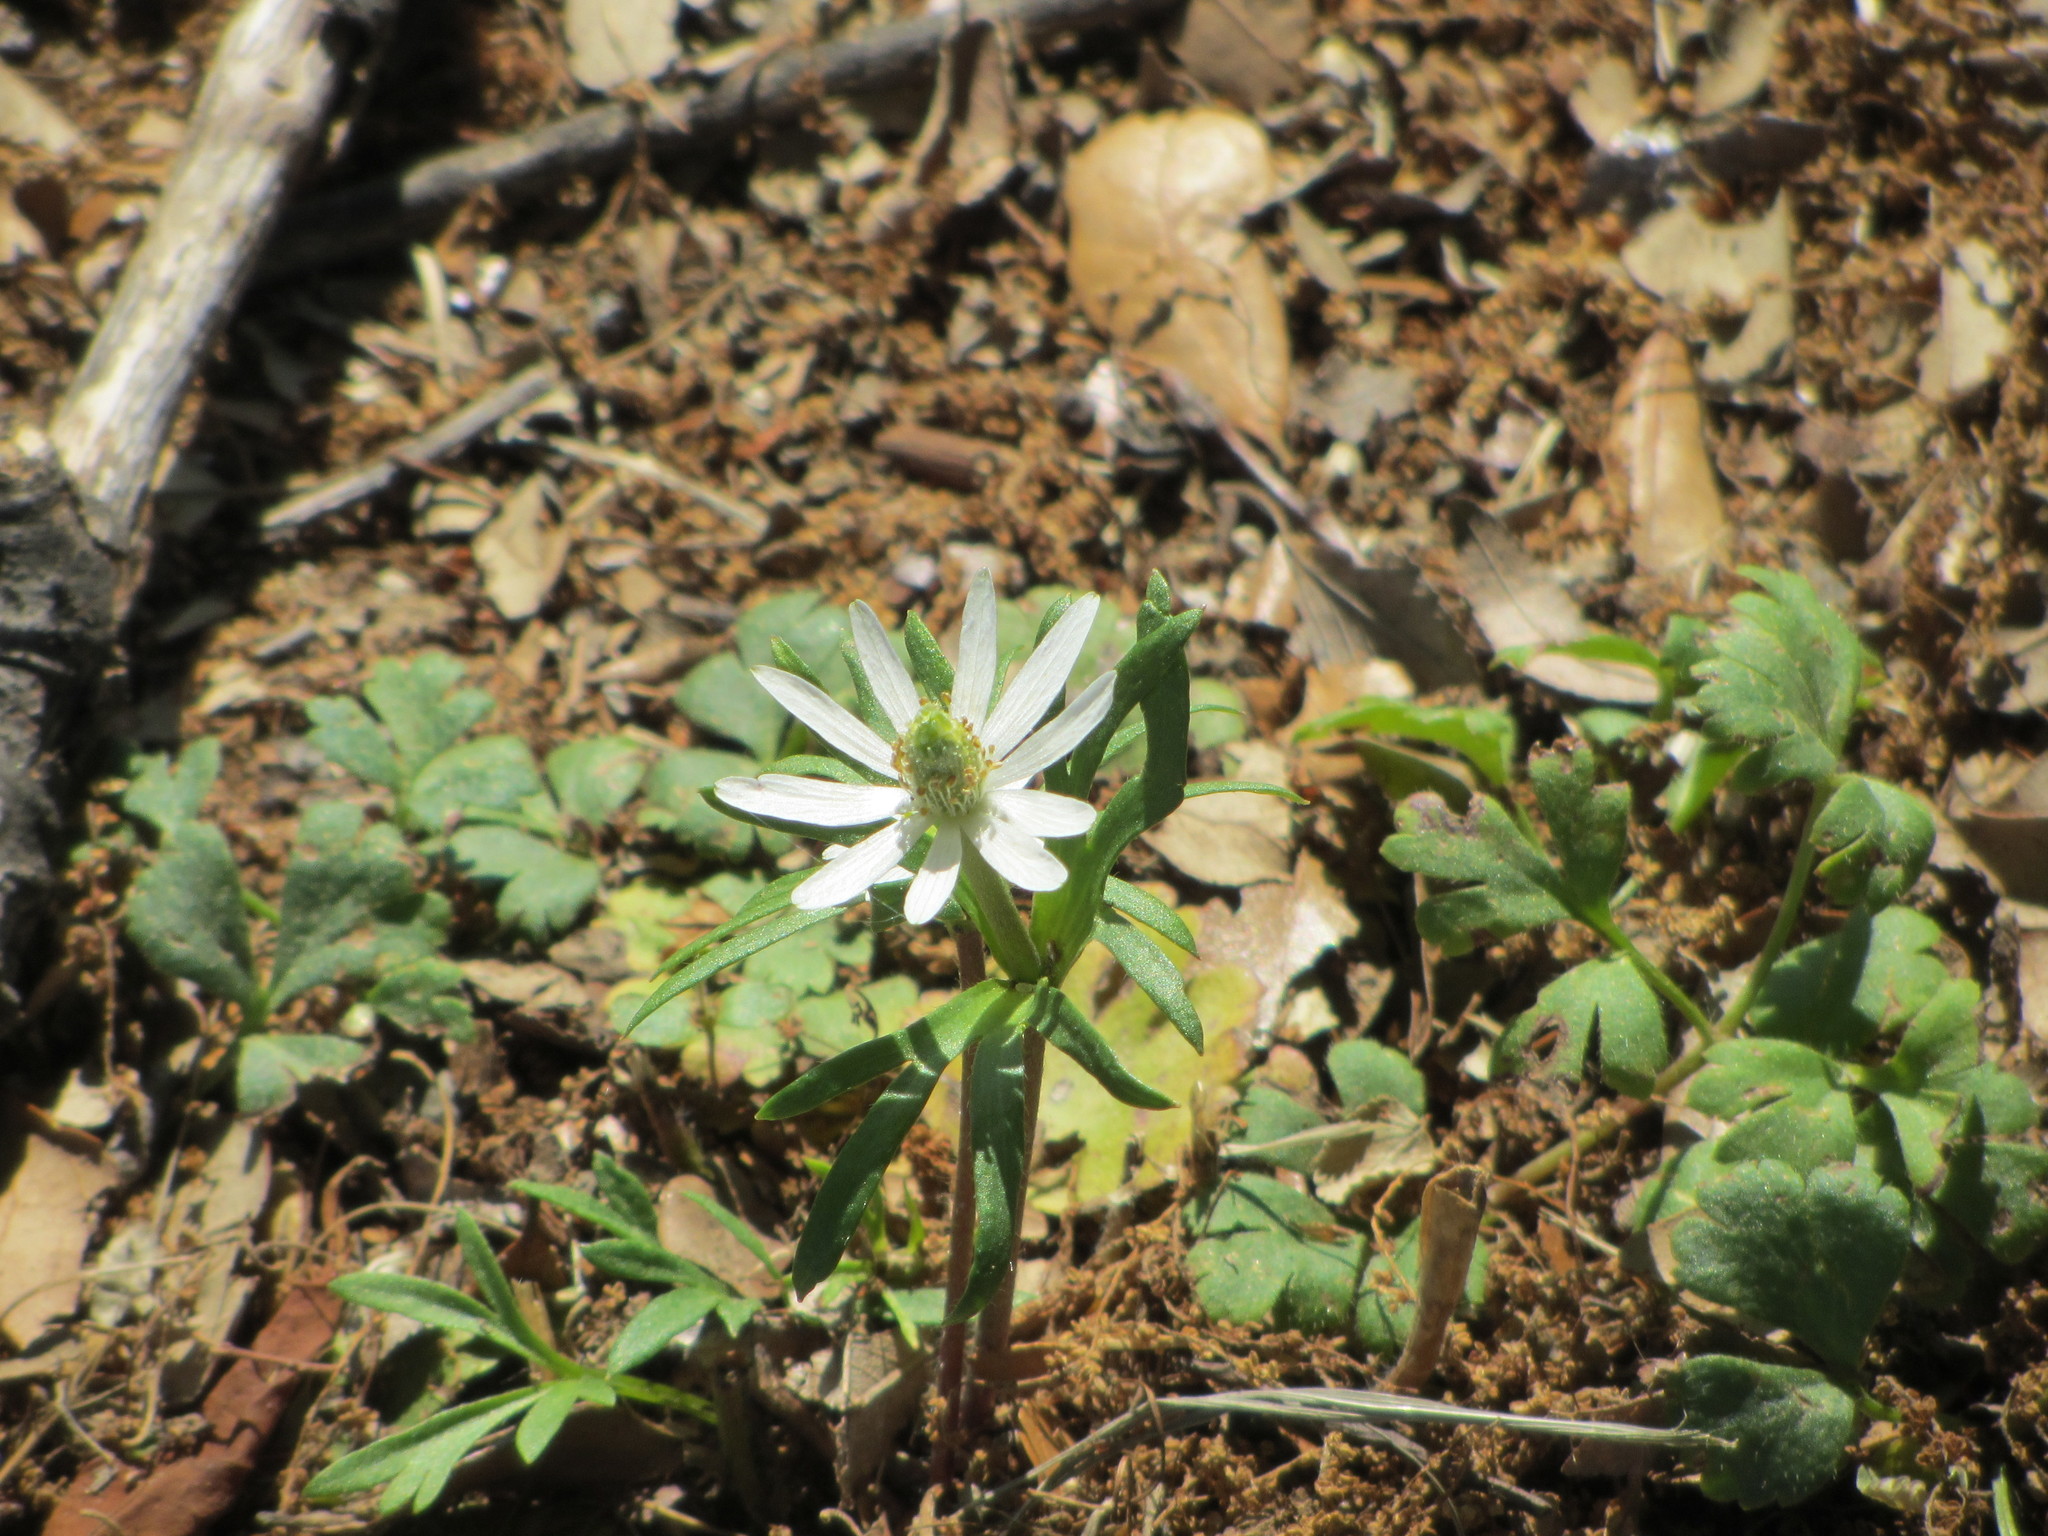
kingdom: Plantae
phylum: Tracheophyta
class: Magnoliopsida
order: Ranunculales
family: Ranunculaceae
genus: Anemone
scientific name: Anemone berlandieri
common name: Ten-petal anemone
